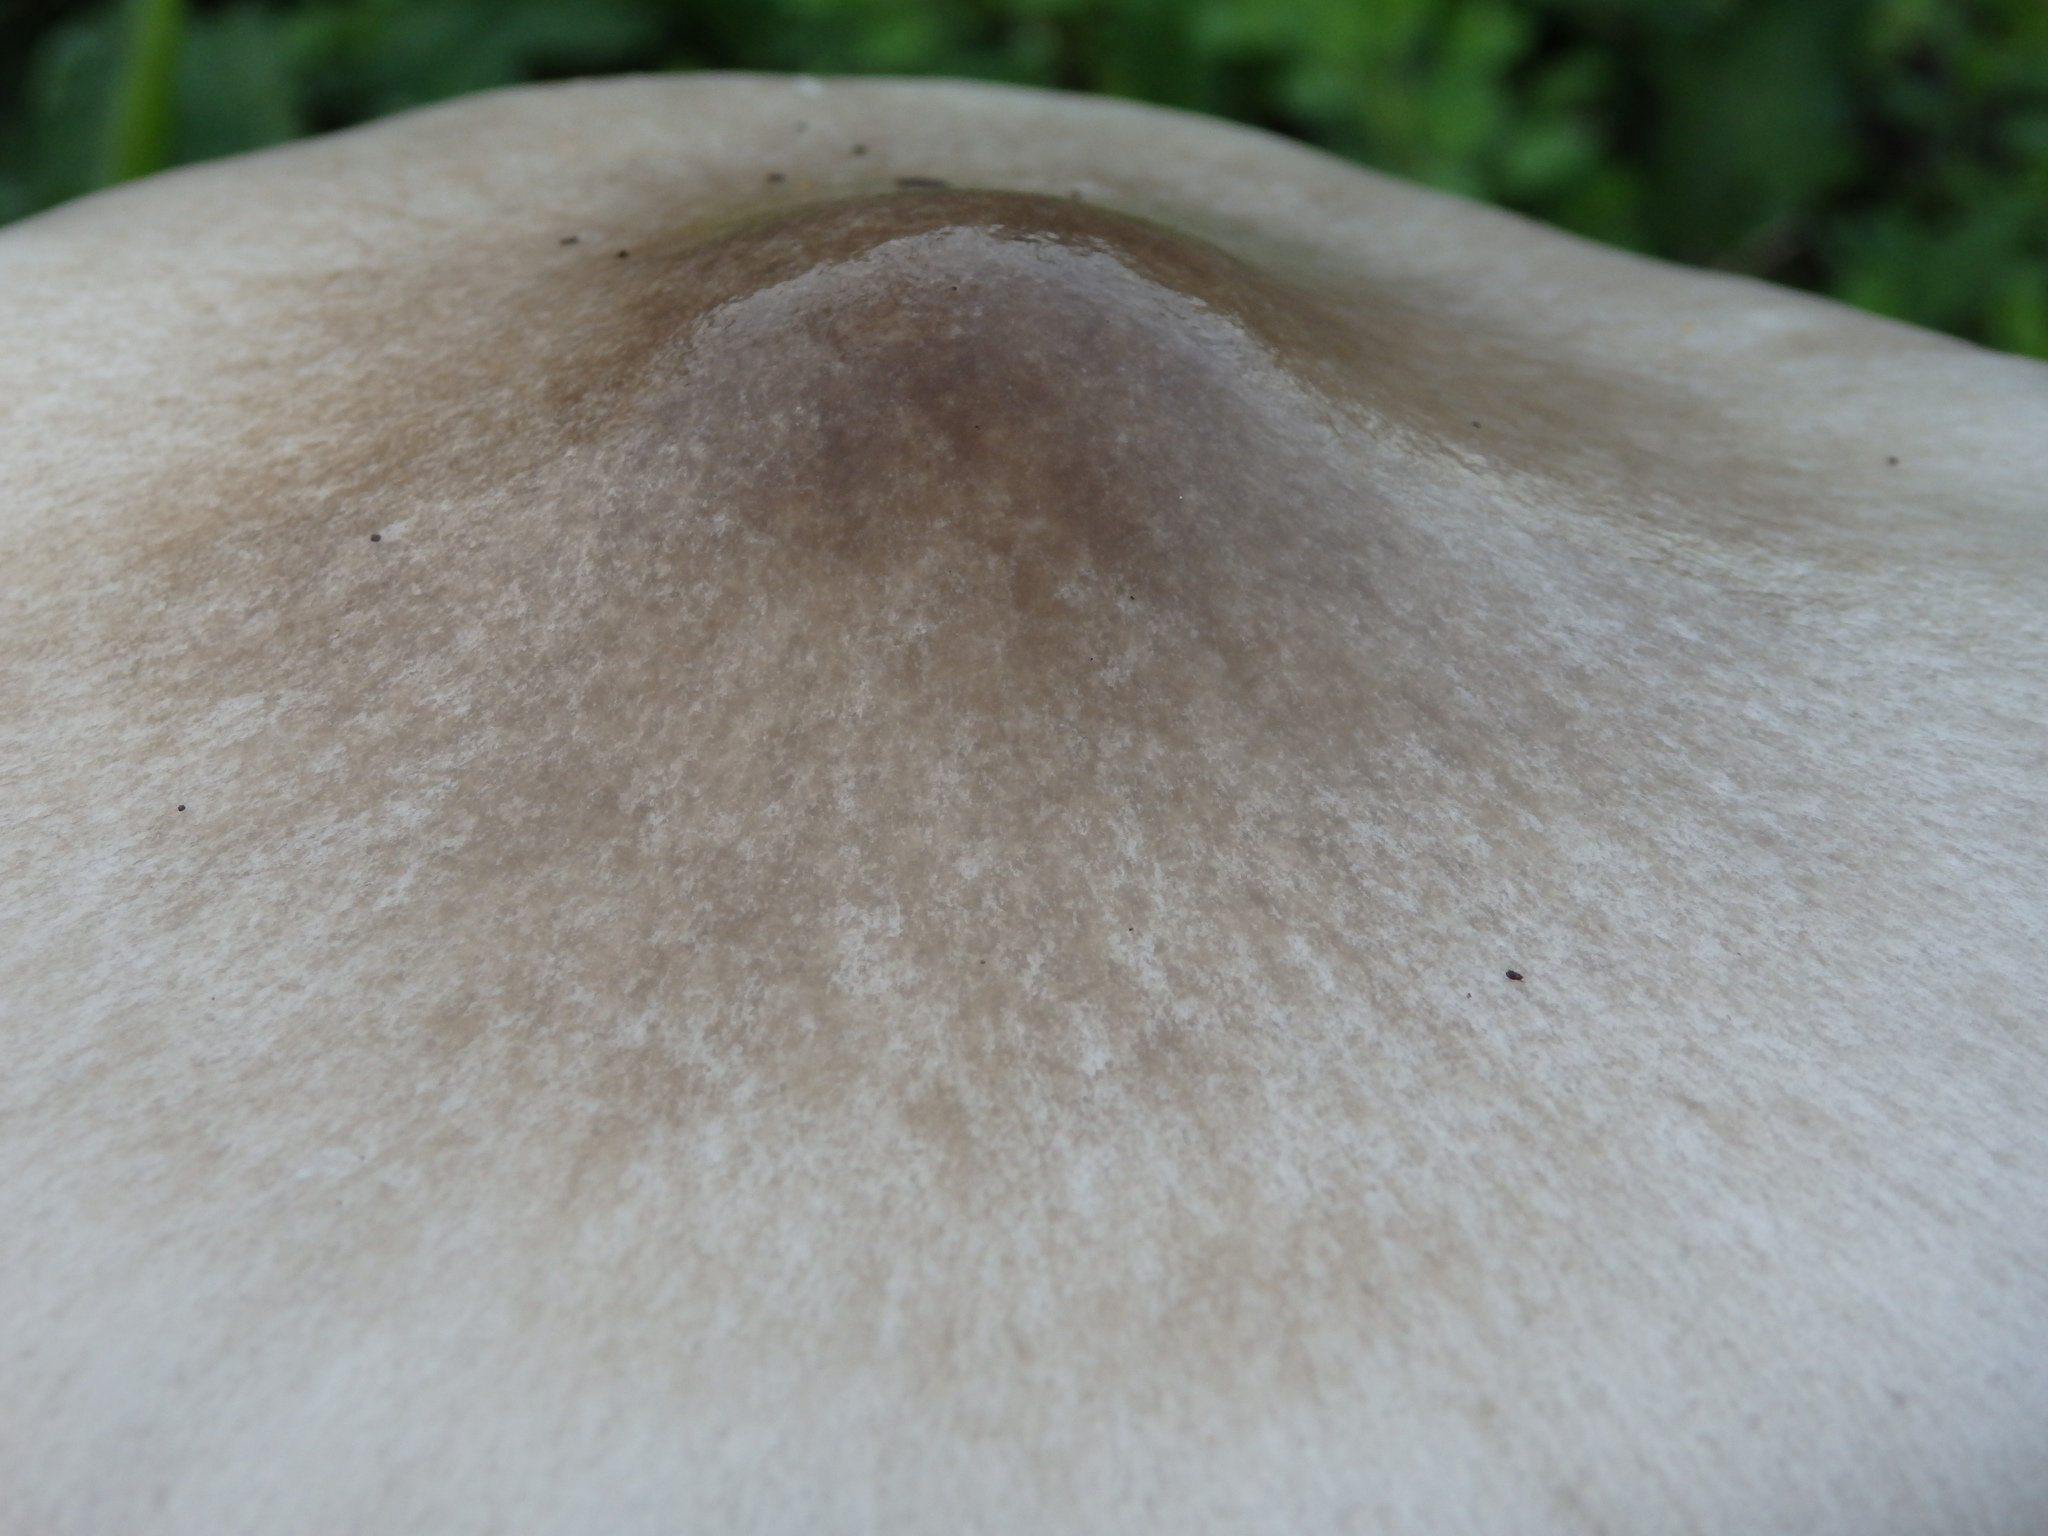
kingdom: Fungi
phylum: Basidiomycota
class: Agaricomycetes
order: Agaricales
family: Pluteaceae
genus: Volvopluteus
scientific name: Volvopluteus gloiocephalus
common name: Stubble rosegill
